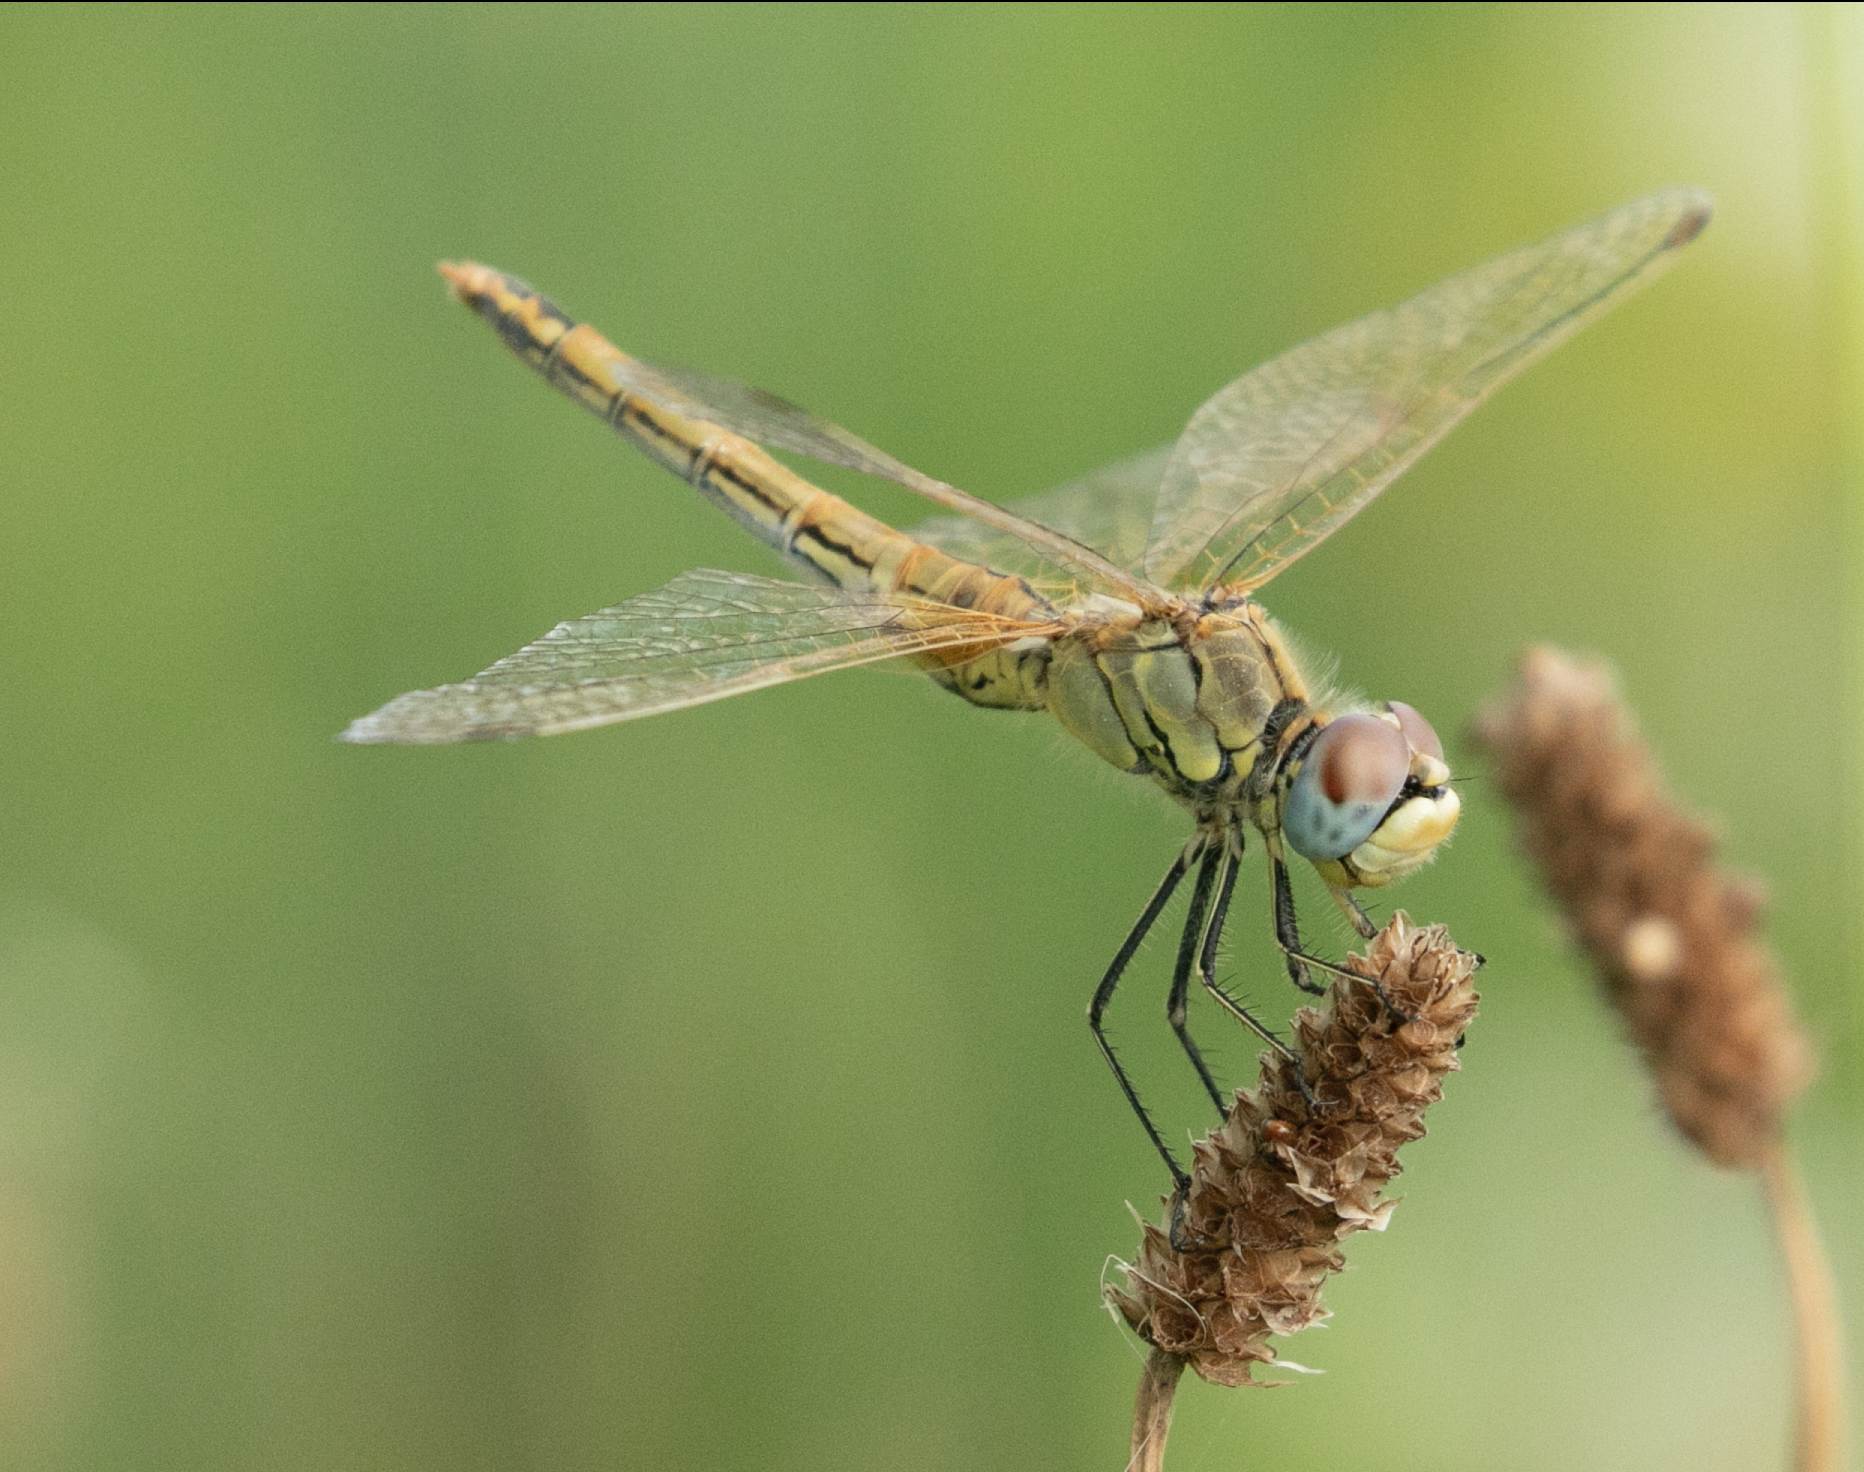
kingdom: Animalia
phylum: Arthropoda
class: Insecta
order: Odonata
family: Libellulidae
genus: Sympetrum
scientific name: Sympetrum fonscolombii
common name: Red-veined darter
